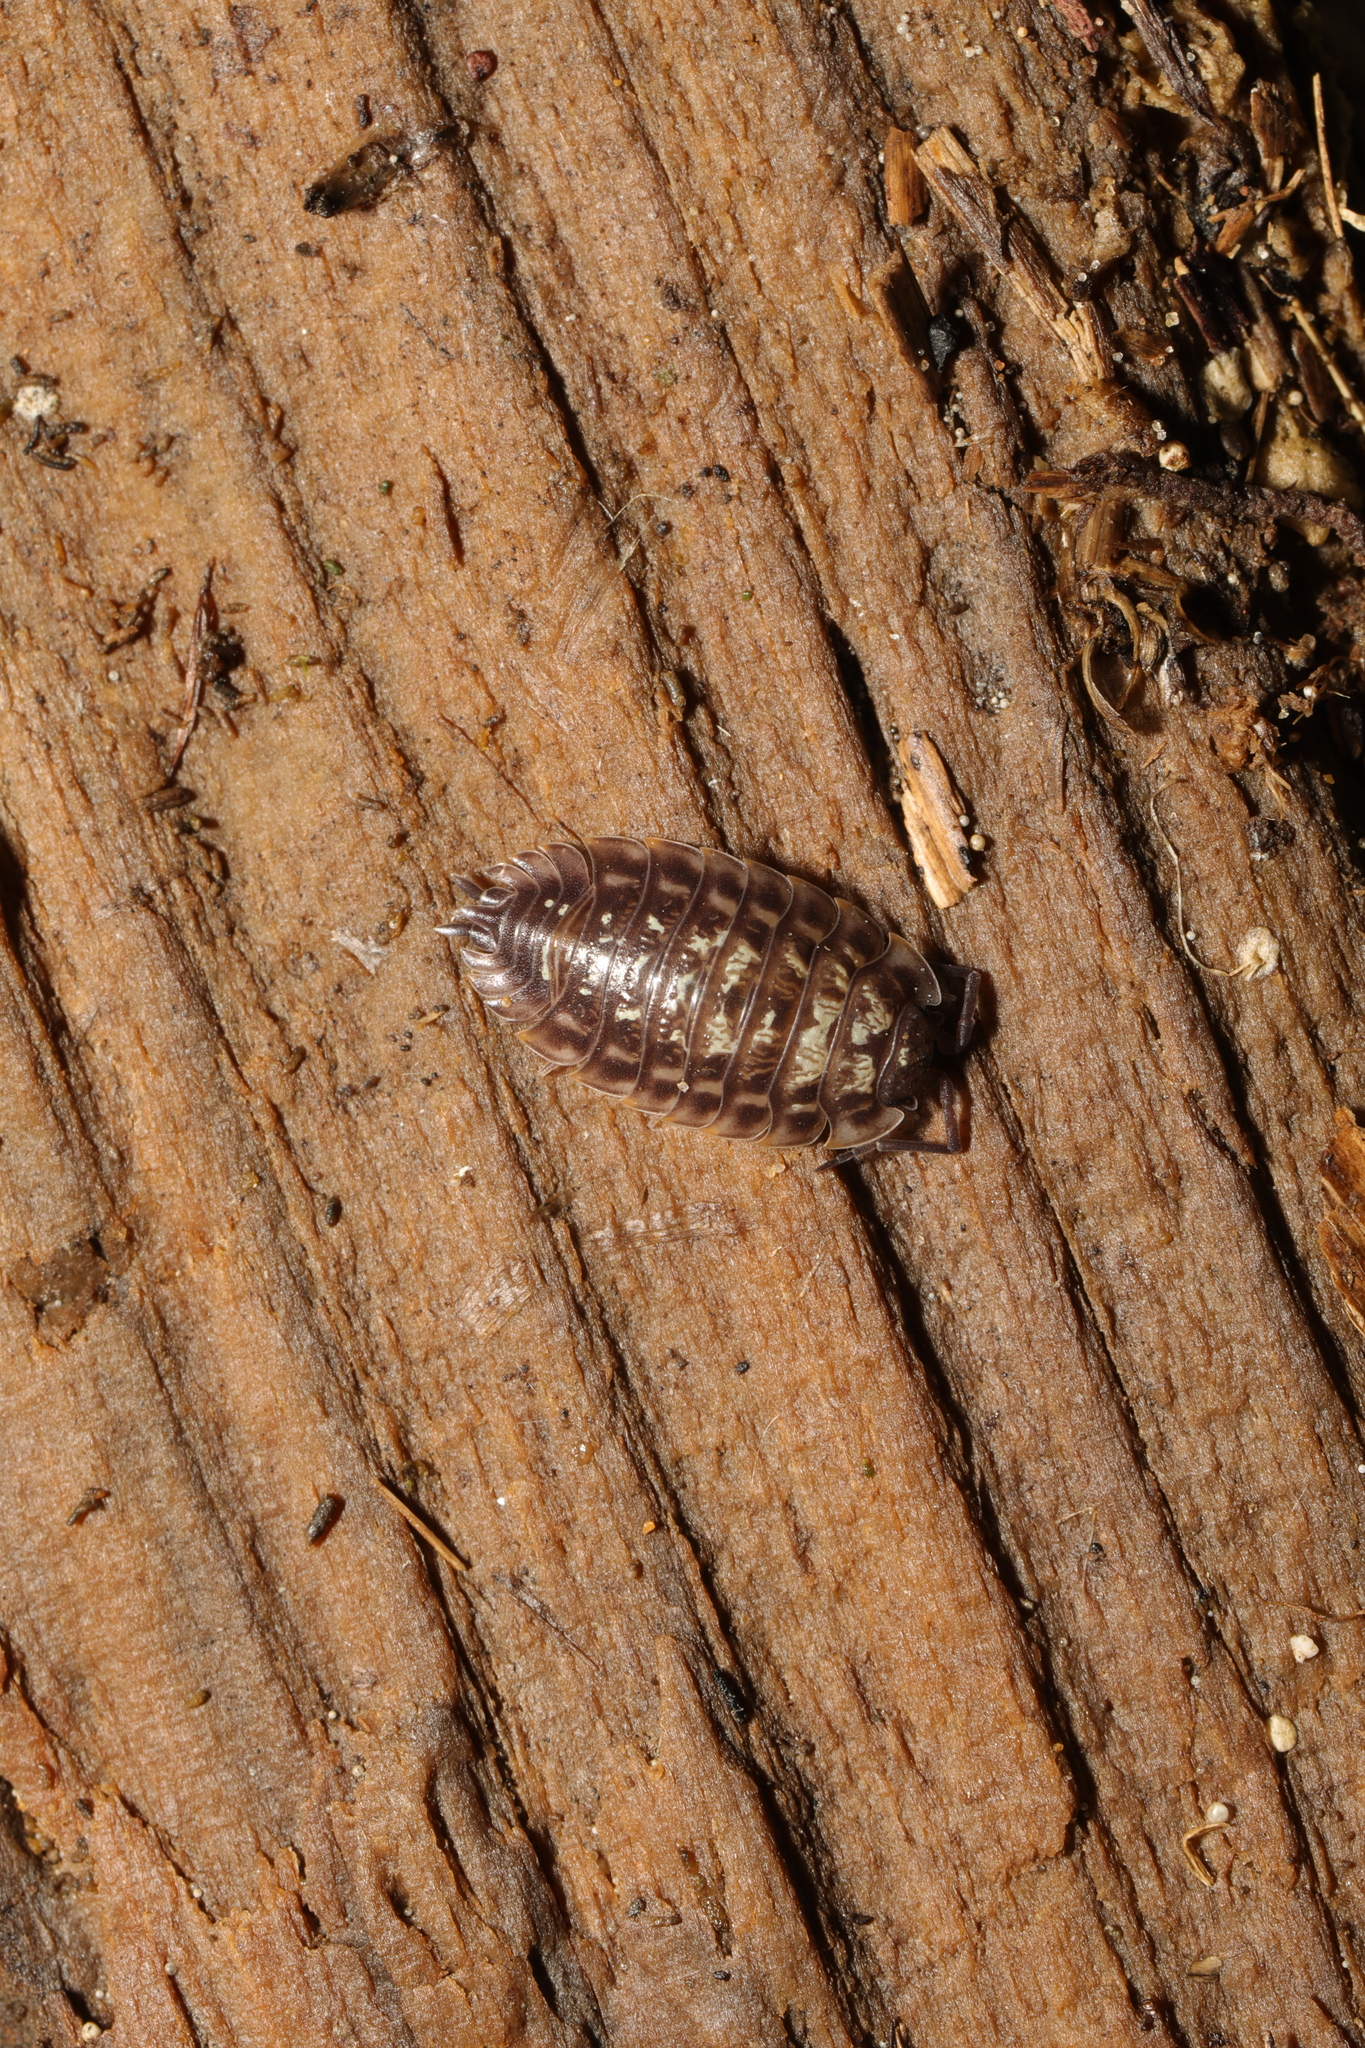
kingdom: Animalia
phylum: Arthropoda
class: Malacostraca
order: Isopoda
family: Oniscidae
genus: Oniscus
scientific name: Oniscus asellus
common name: Common shiny woodlouse
